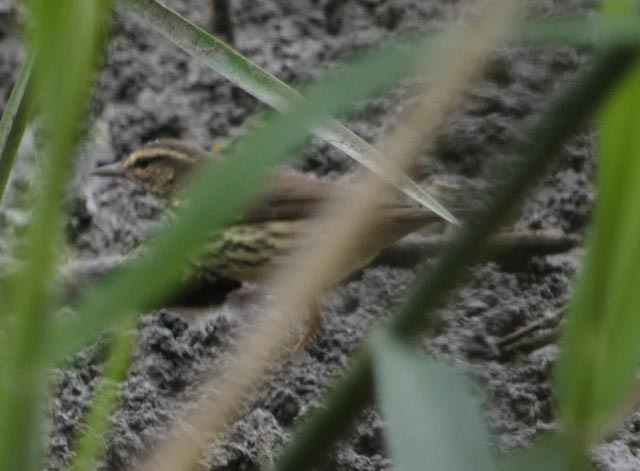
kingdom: Animalia
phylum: Chordata
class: Aves
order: Passeriformes
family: Parulidae
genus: Parkesia
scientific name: Parkesia noveboracensis
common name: Northern waterthrush
